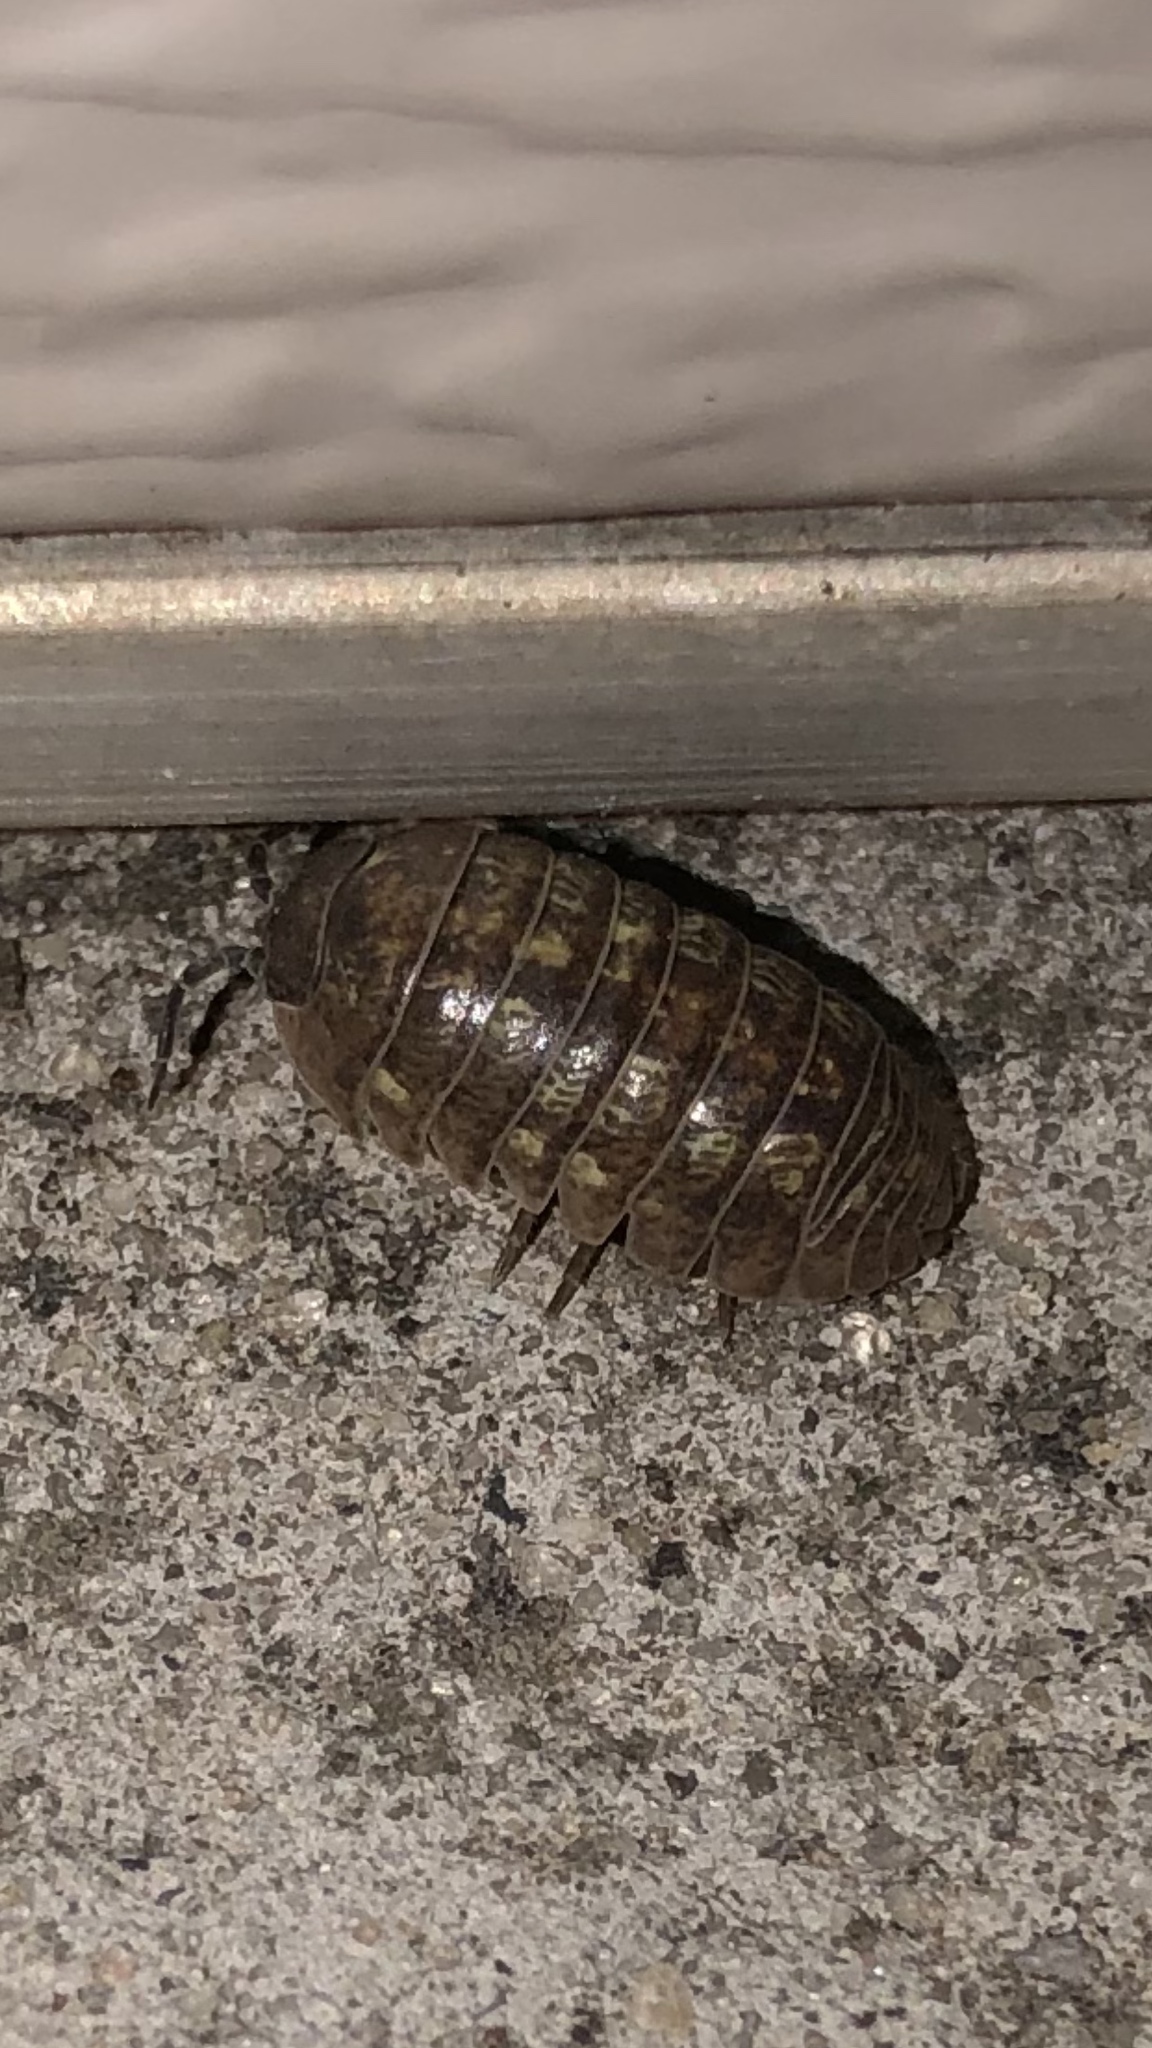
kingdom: Animalia
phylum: Arthropoda
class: Malacostraca
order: Isopoda
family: Armadillidiidae
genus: Armadillidium
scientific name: Armadillidium vulgare
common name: Common pill woodlouse
